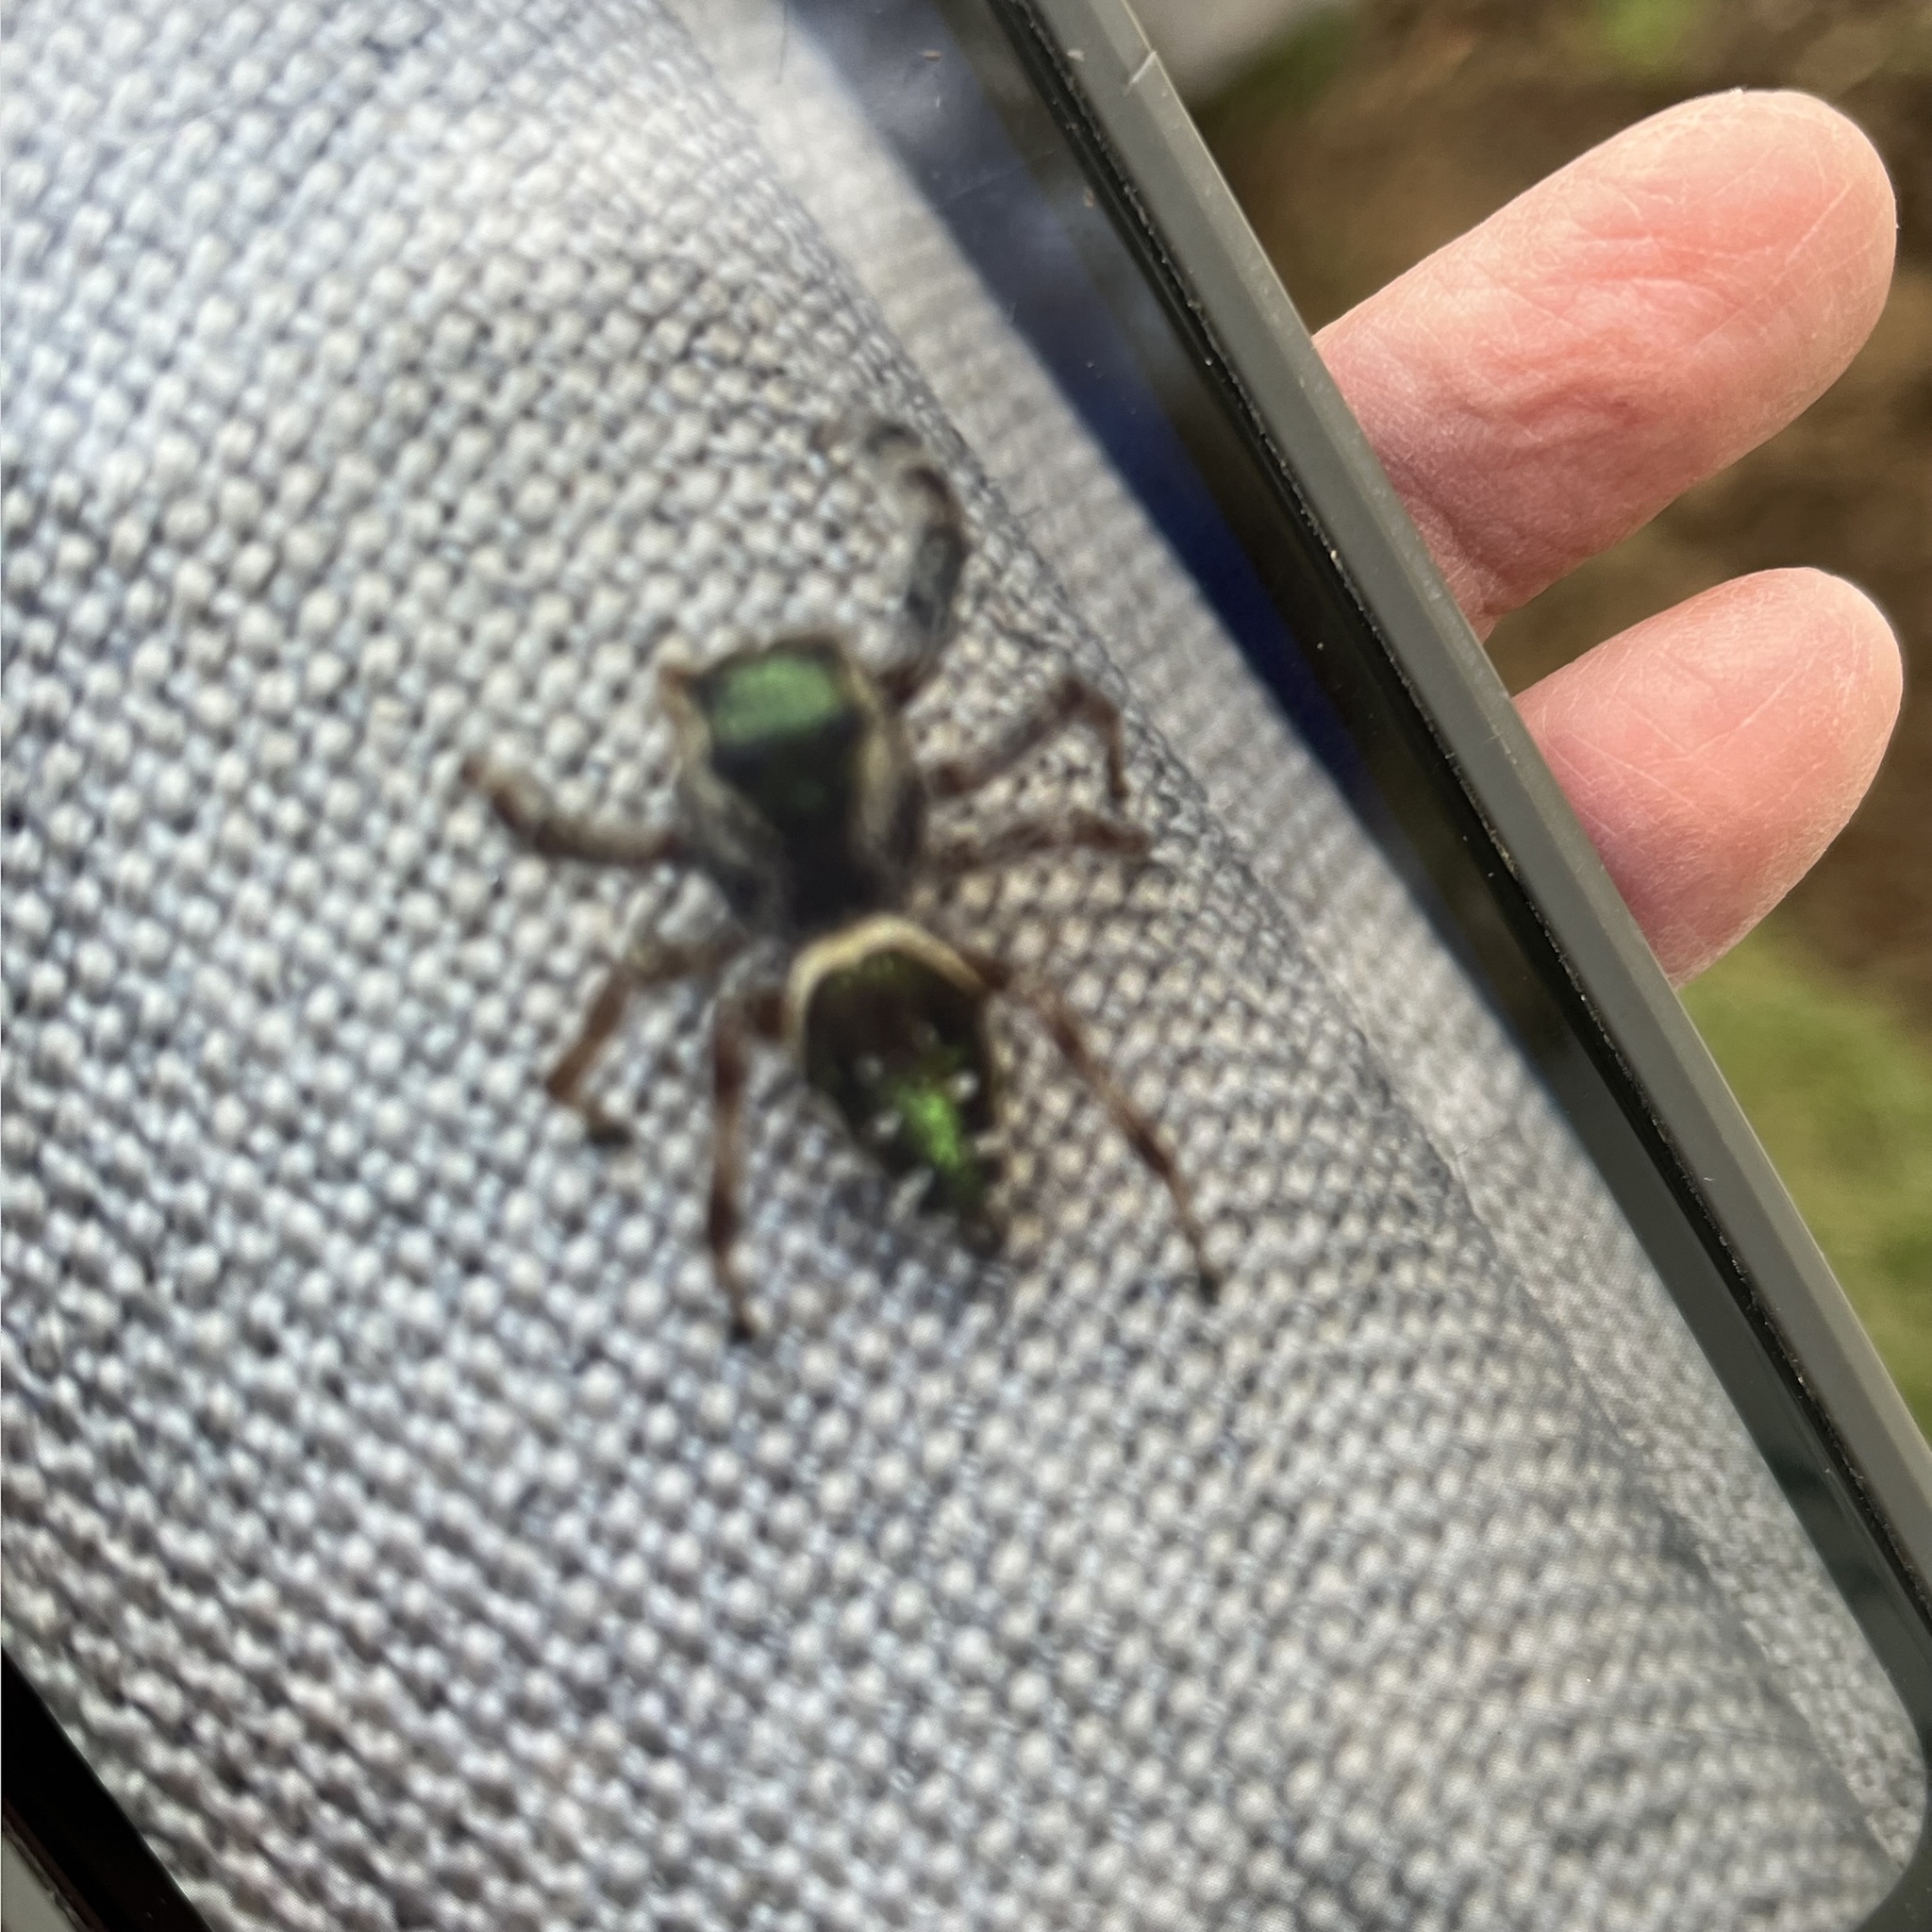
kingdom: Animalia
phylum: Arthropoda
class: Arachnida
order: Araneae
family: Salticidae
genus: Paraphidippus
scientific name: Paraphidippus aurantius
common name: Jumping spiders
